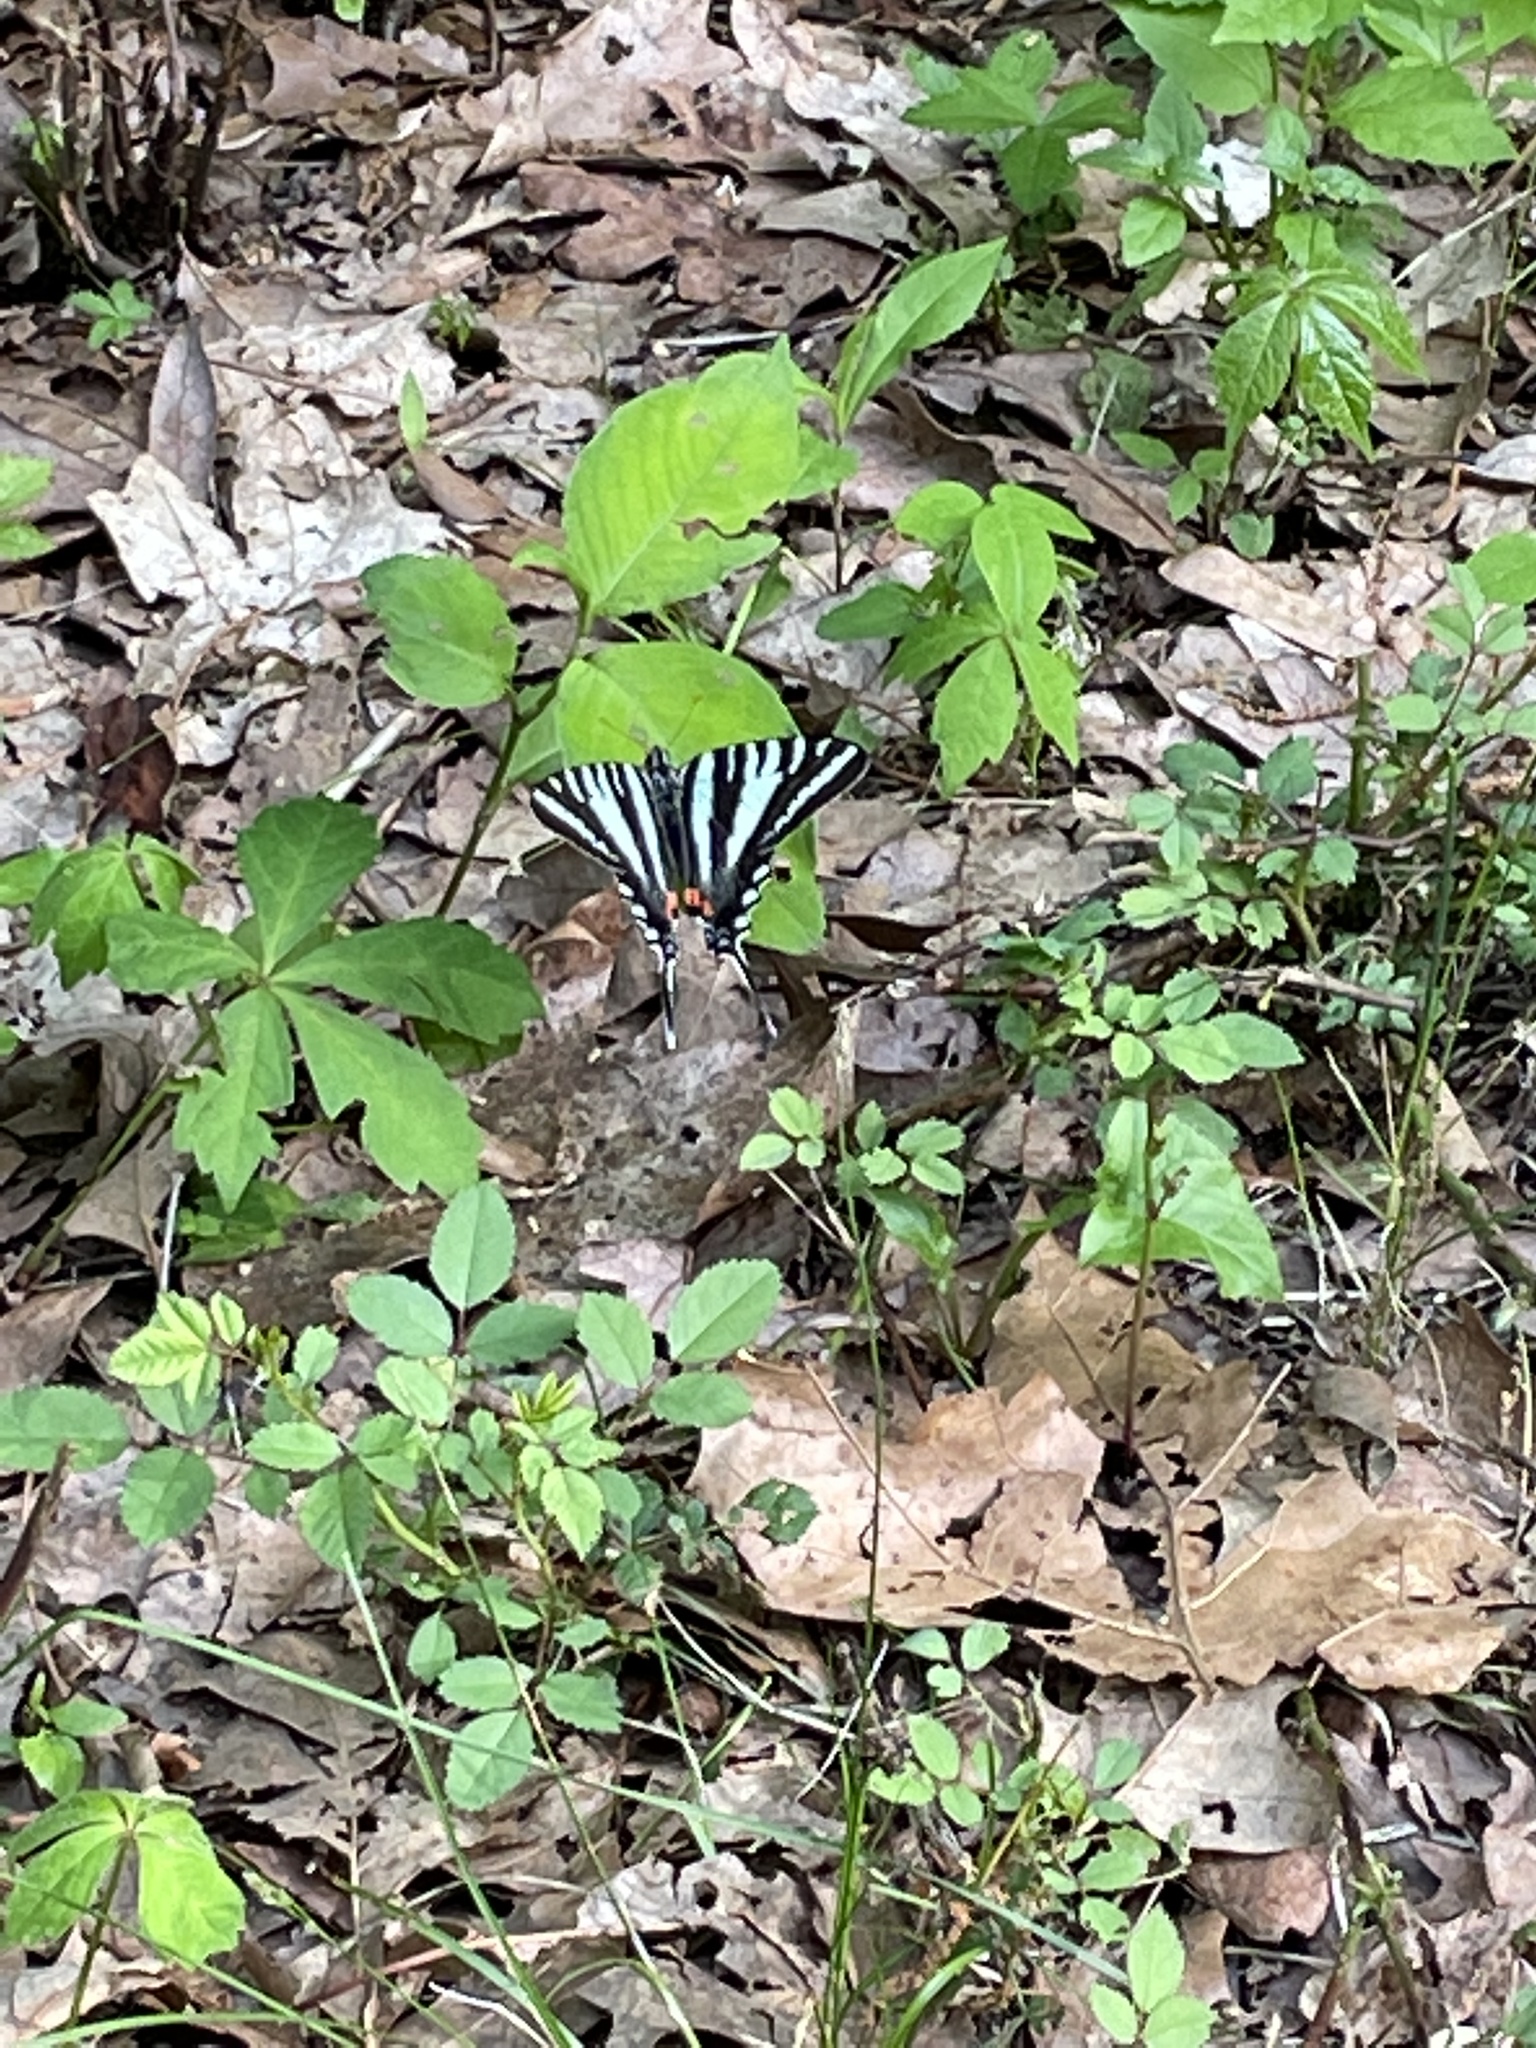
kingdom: Animalia
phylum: Arthropoda
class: Insecta
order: Lepidoptera
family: Papilionidae
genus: Protographium
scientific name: Protographium marcellus
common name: Zebra swallowtail
